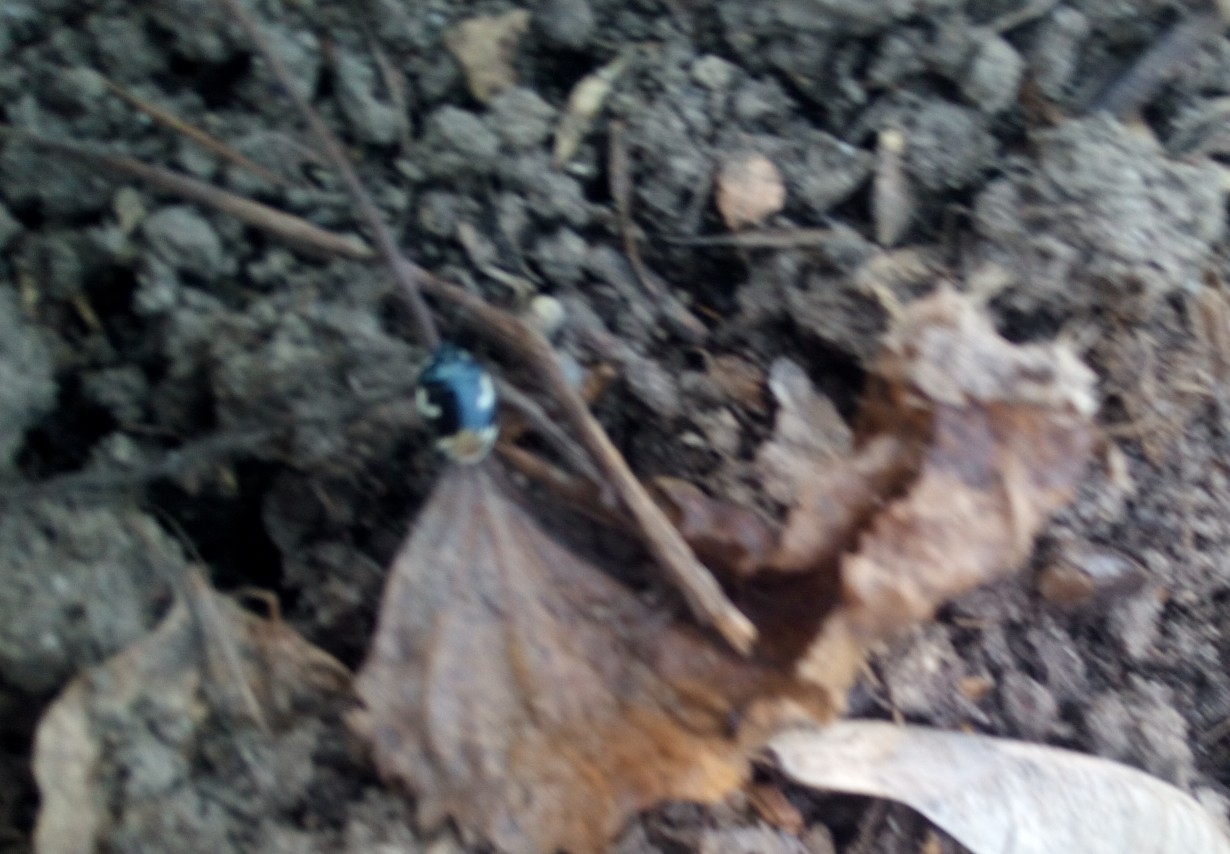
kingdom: Animalia
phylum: Arthropoda
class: Insecta
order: Hemiptera
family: Cydnidae
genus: Tritomegas
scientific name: Tritomegas bicolor
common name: Pied shieldbug
